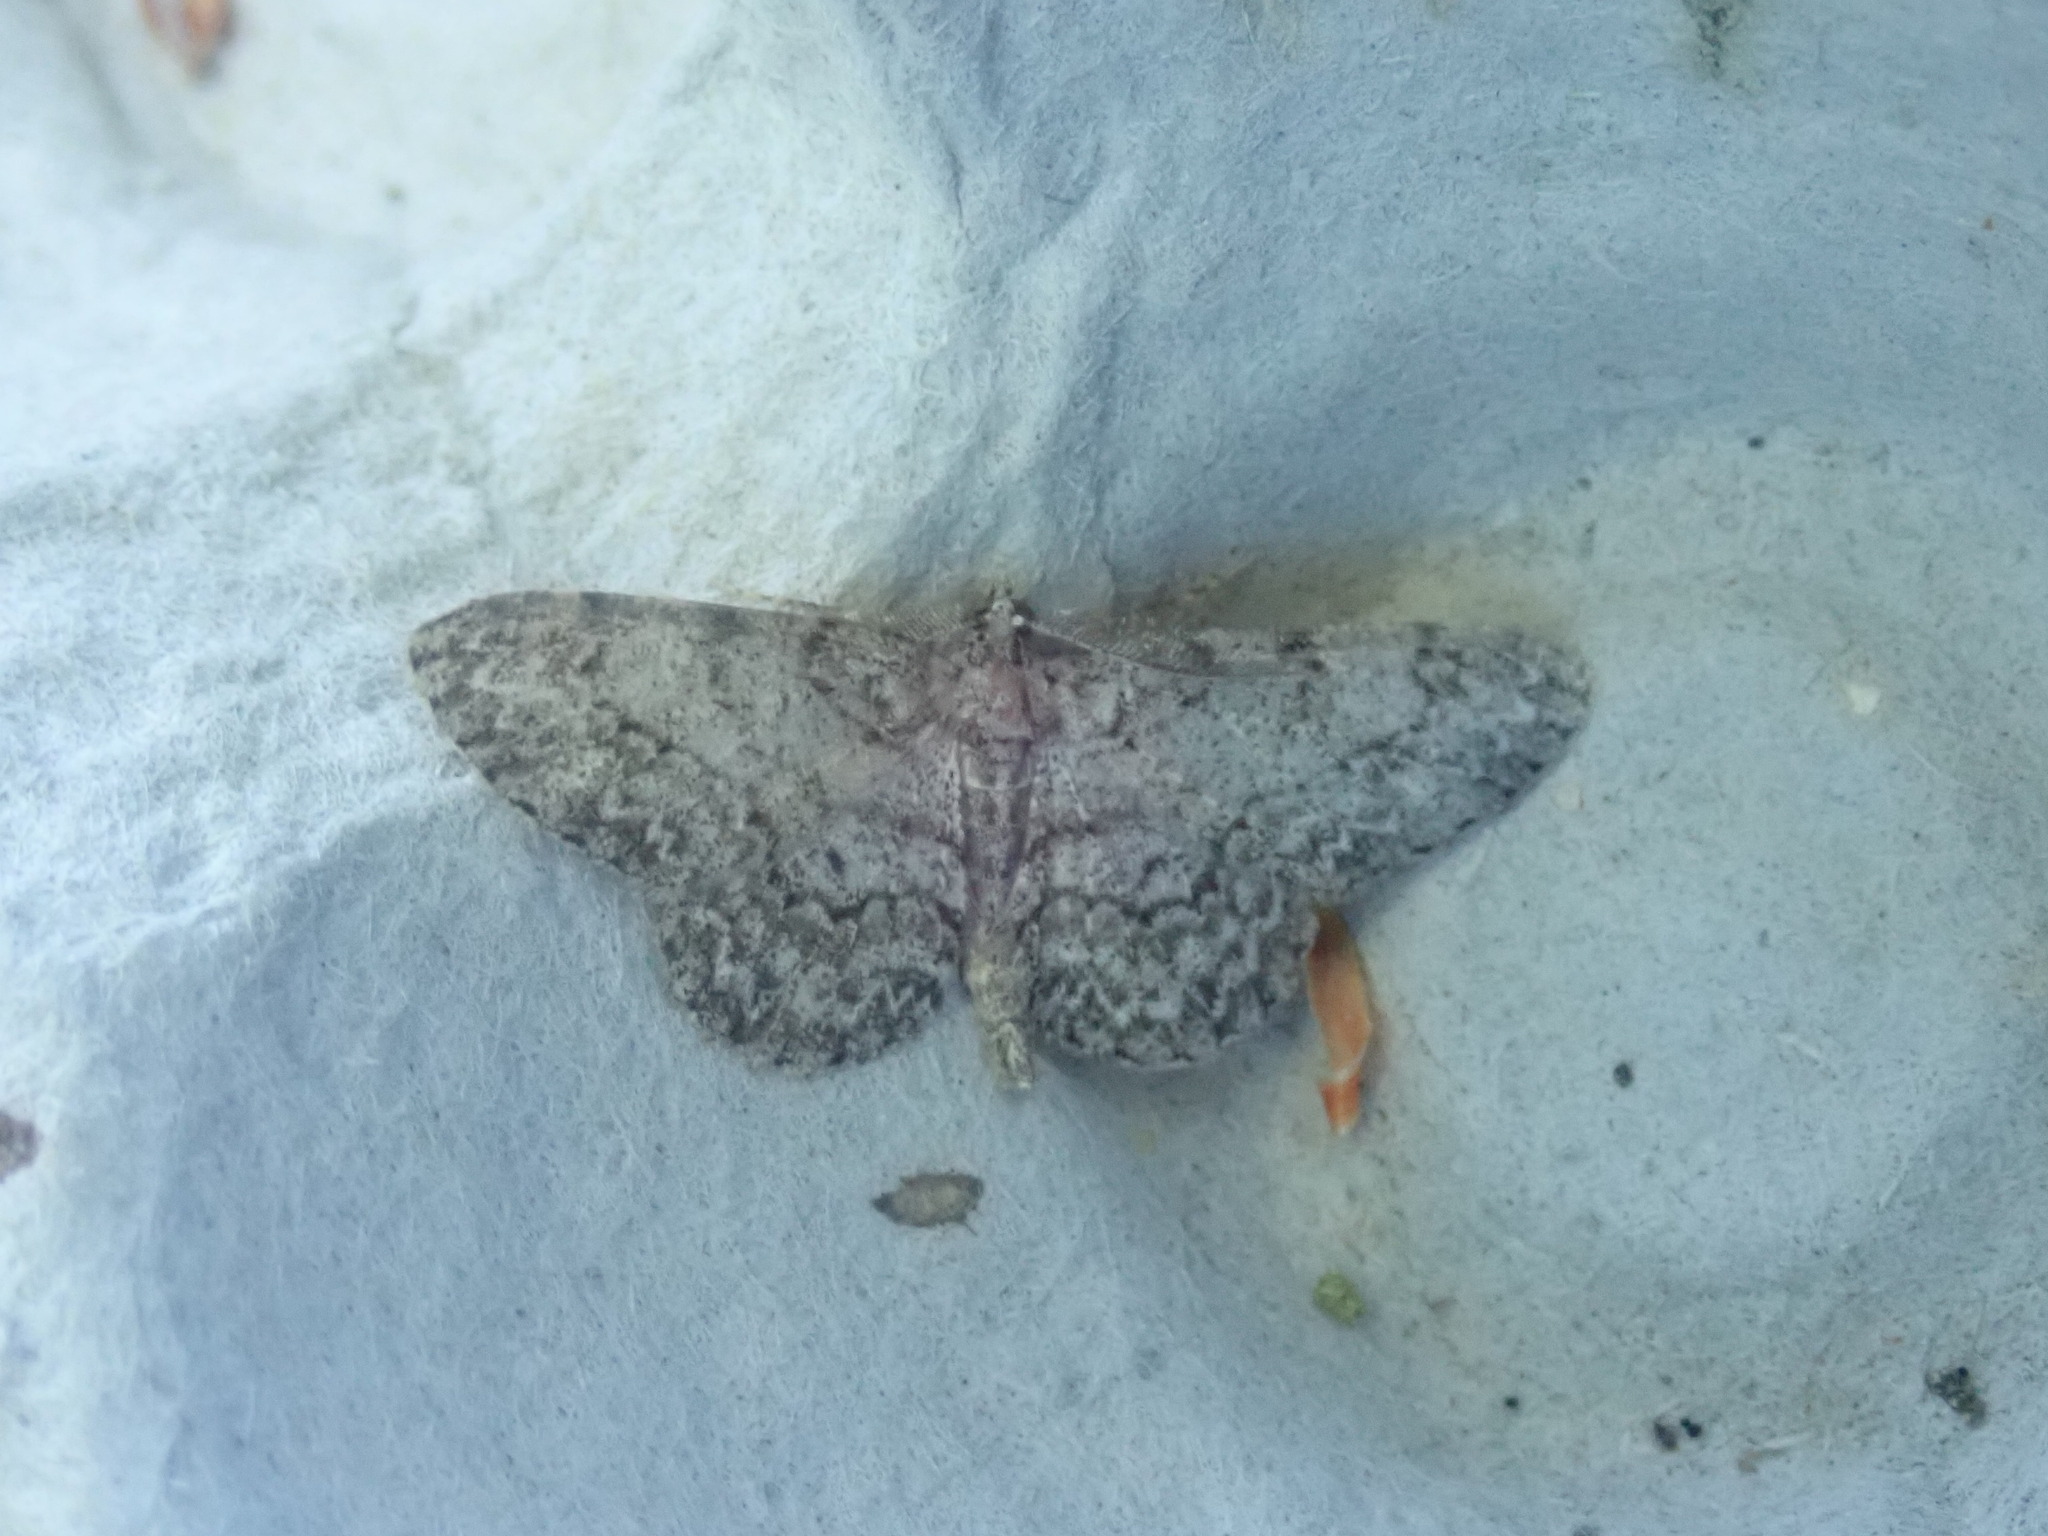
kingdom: Animalia
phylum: Arthropoda
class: Insecta
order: Lepidoptera
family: Geometridae
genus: Protoboarmia
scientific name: Protoboarmia porcelaria
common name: Porcelain gray
